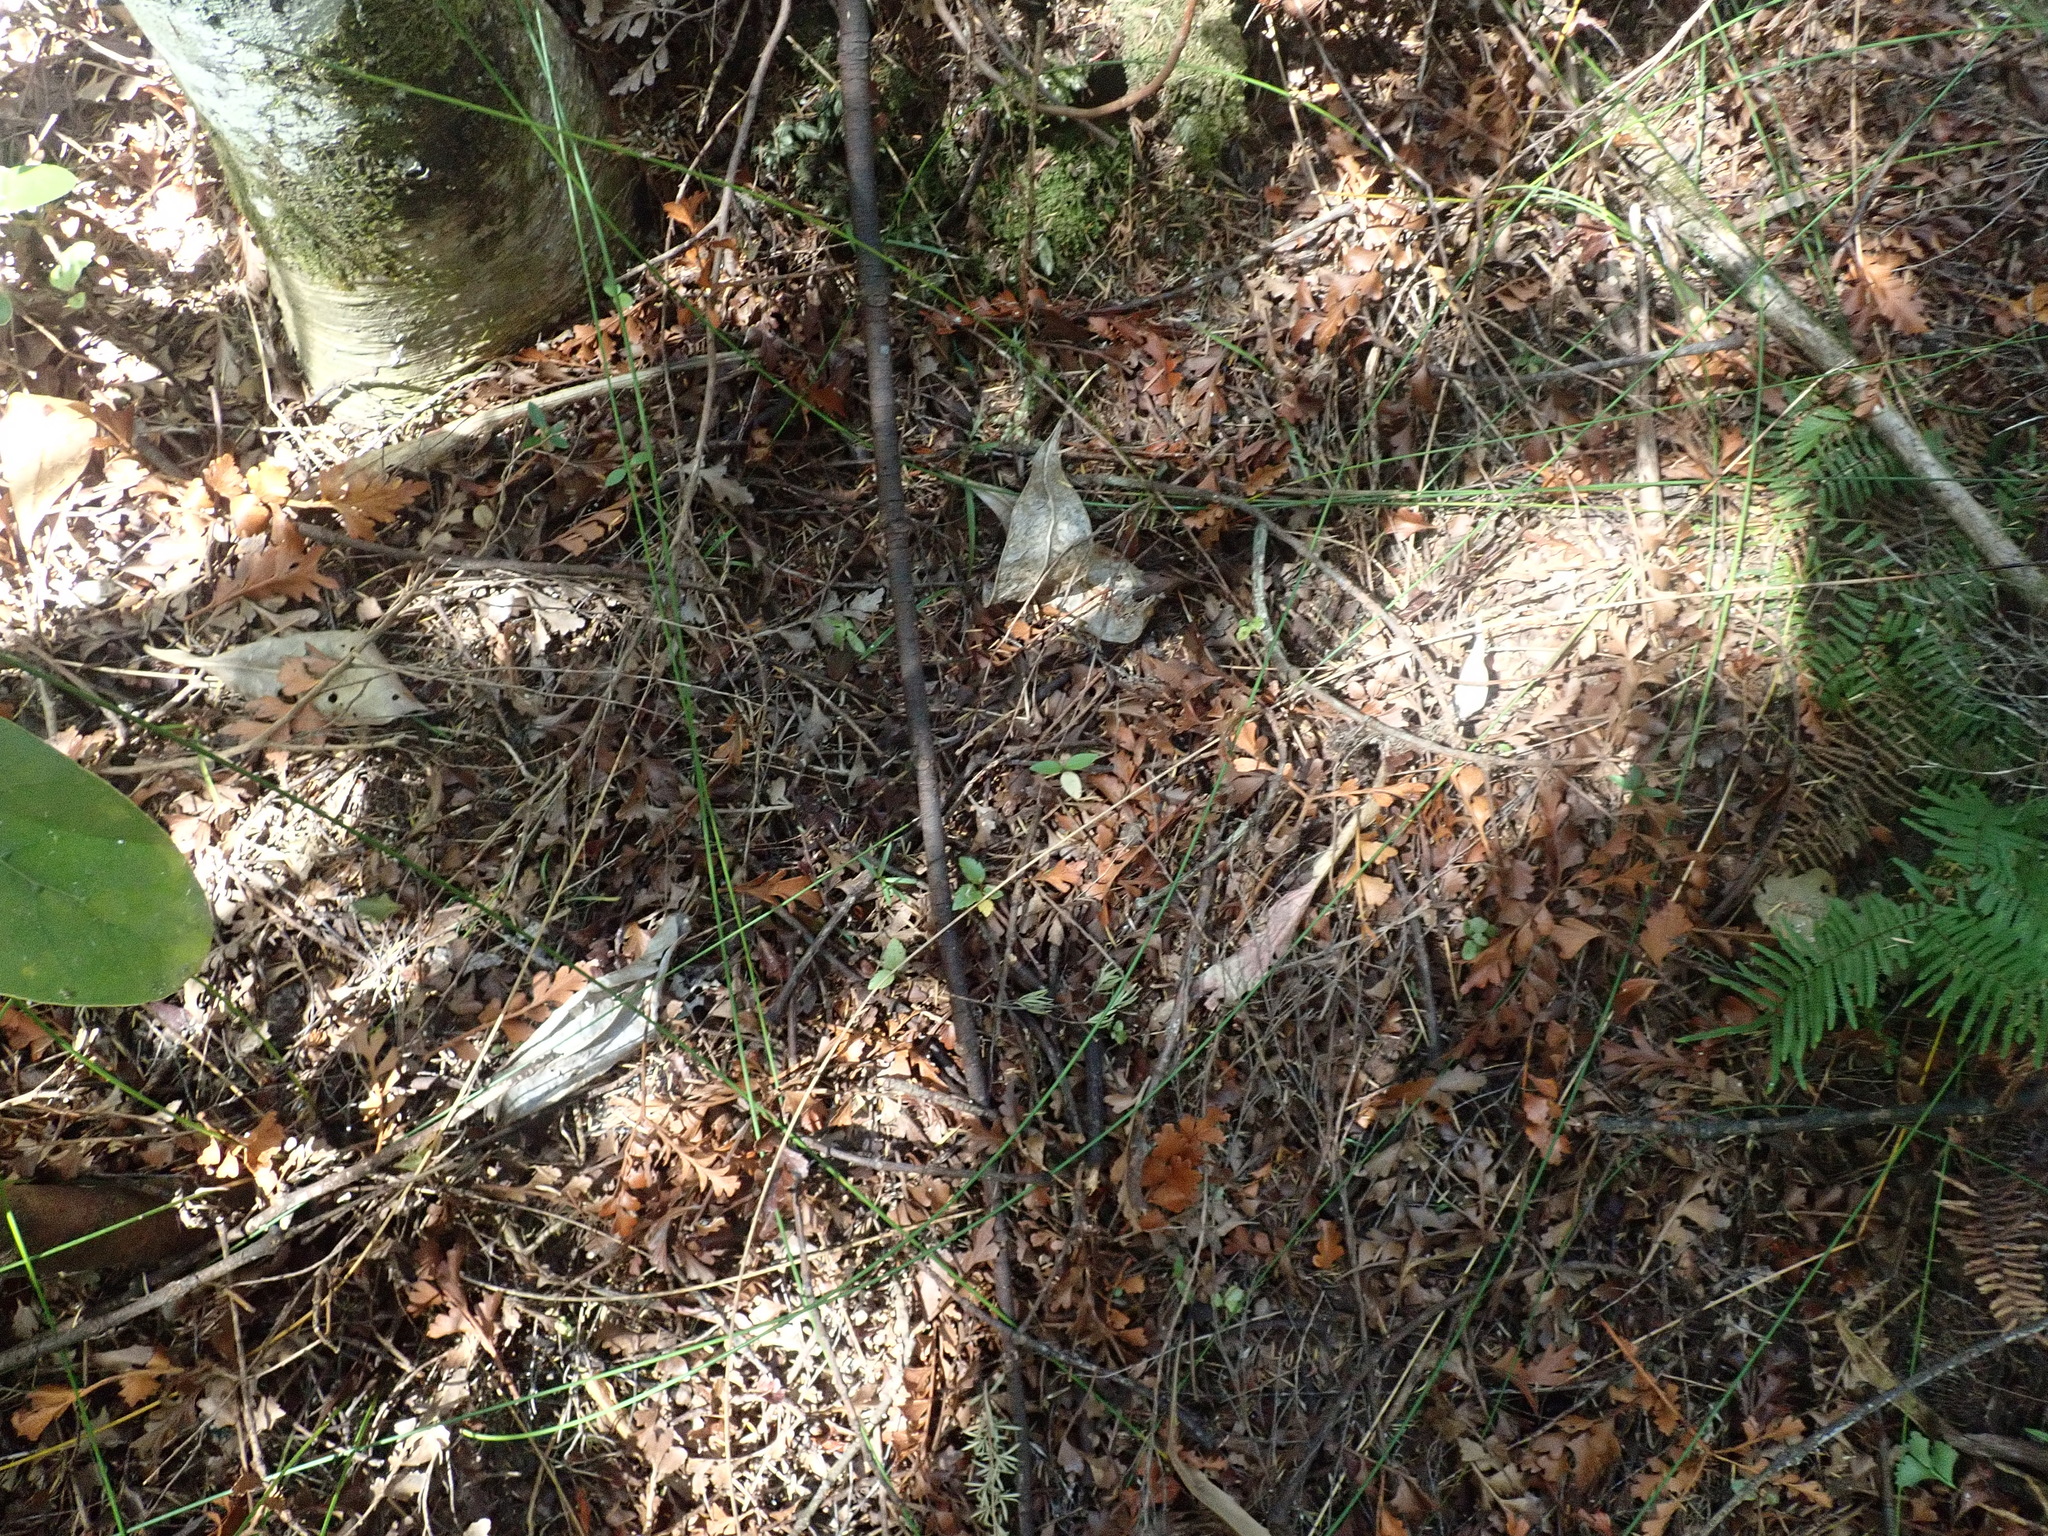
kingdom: Plantae
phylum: Tracheophyta
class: Liliopsida
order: Poales
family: Cyperaceae
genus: Schoenus
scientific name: Schoenus tendo
